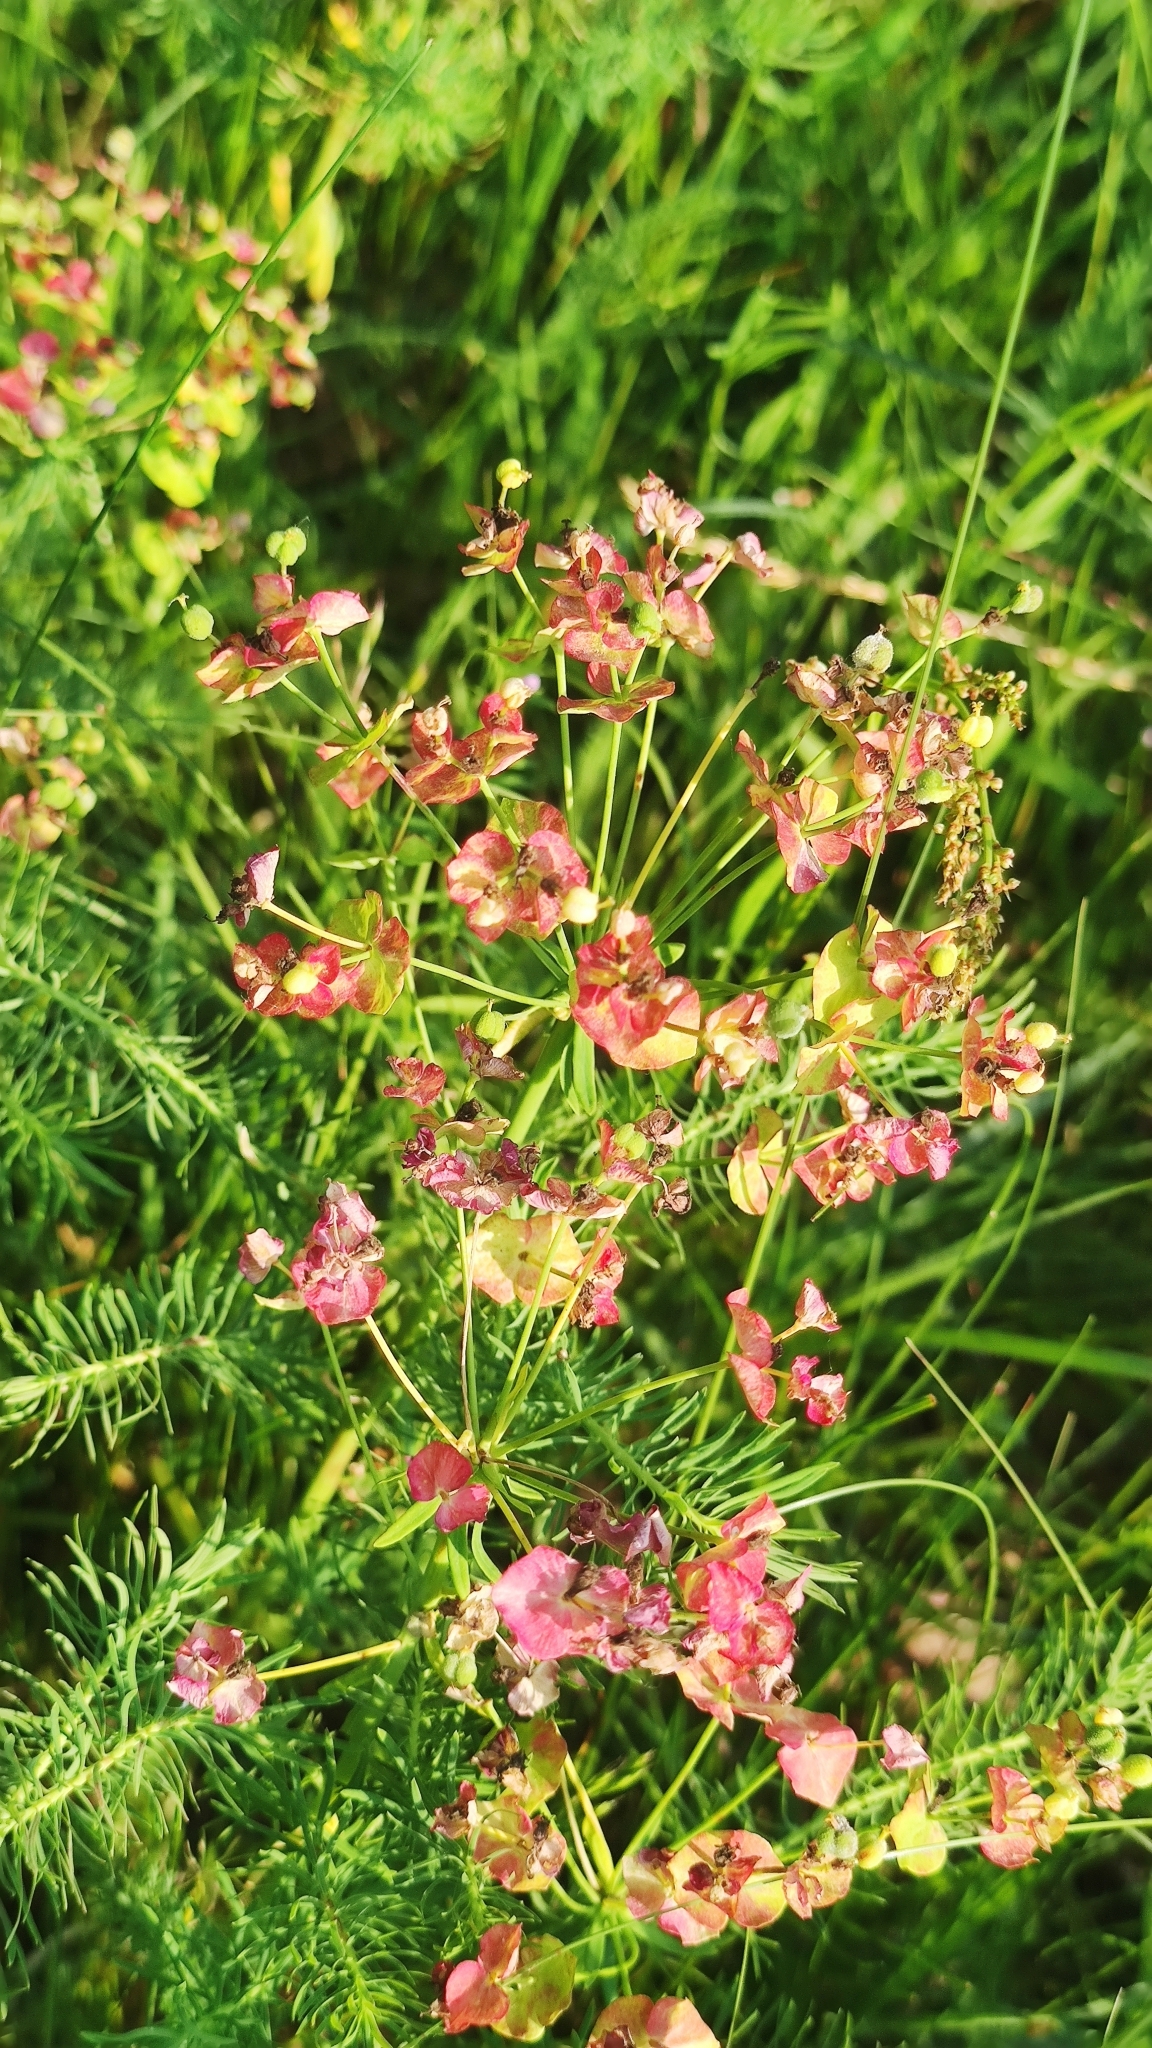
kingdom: Plantae
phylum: Tracheophyta
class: Magnoliopsida
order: Malpighiales
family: Euphorbiaceae
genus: Euphorbia
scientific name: Euphorbia cyparissias
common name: Cypress spurge
